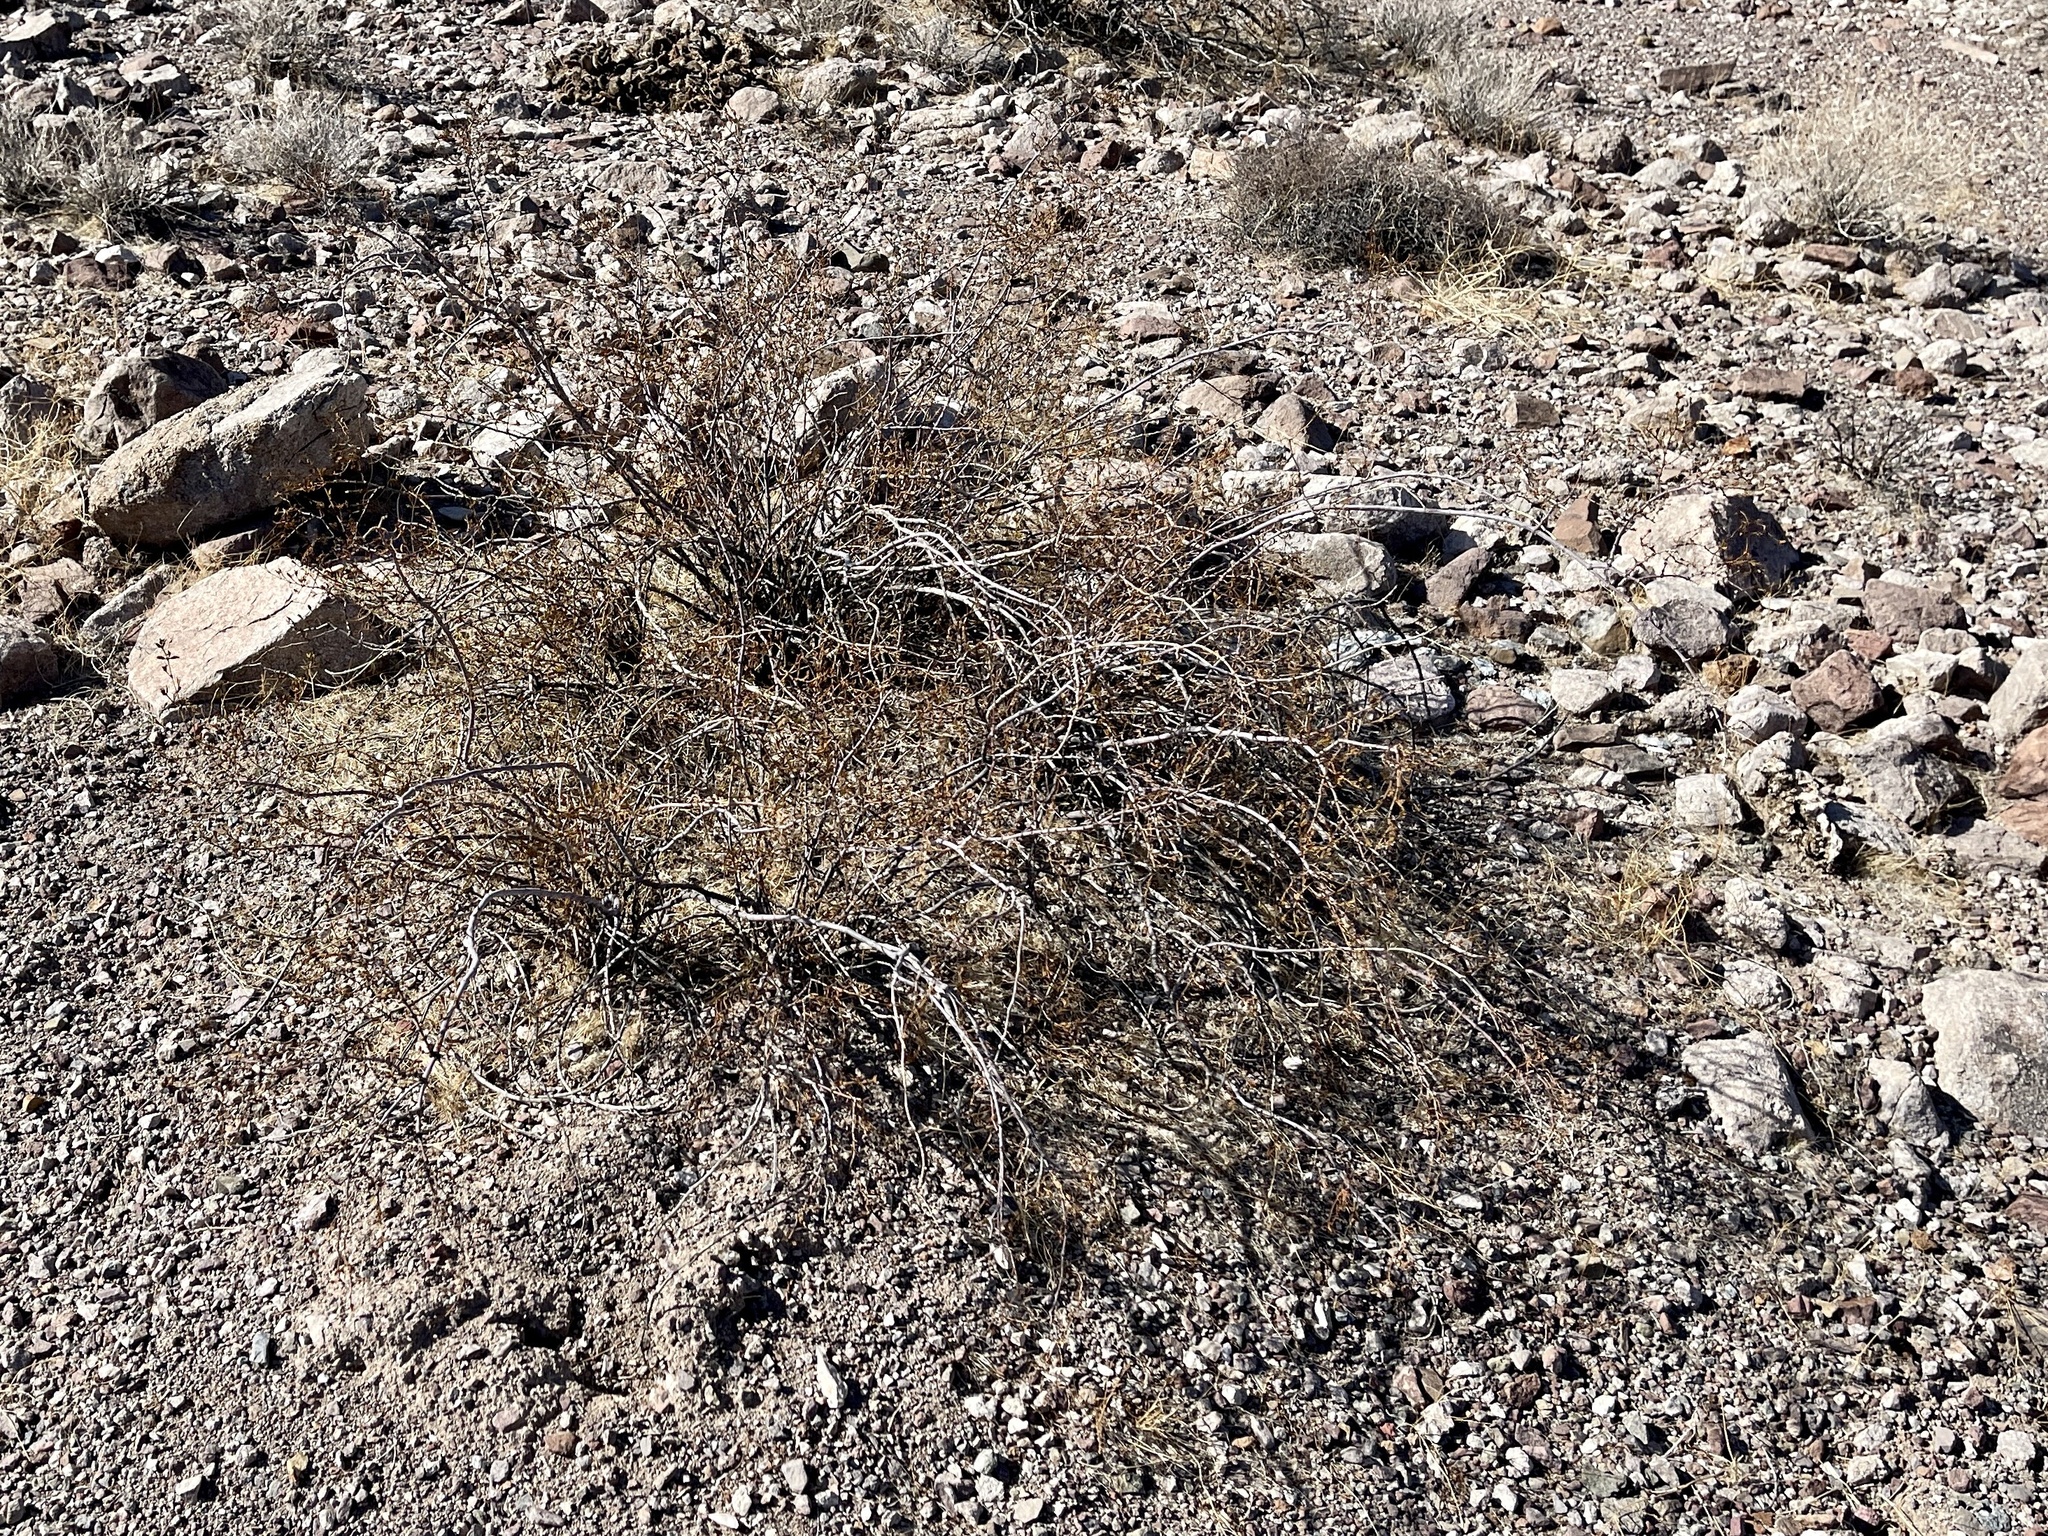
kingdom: Plantae
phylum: Tracheophyta
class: Magnoliopsida
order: Zygophyllales
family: Zygophyllaceae
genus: Larrea
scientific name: Larrea tridentata
